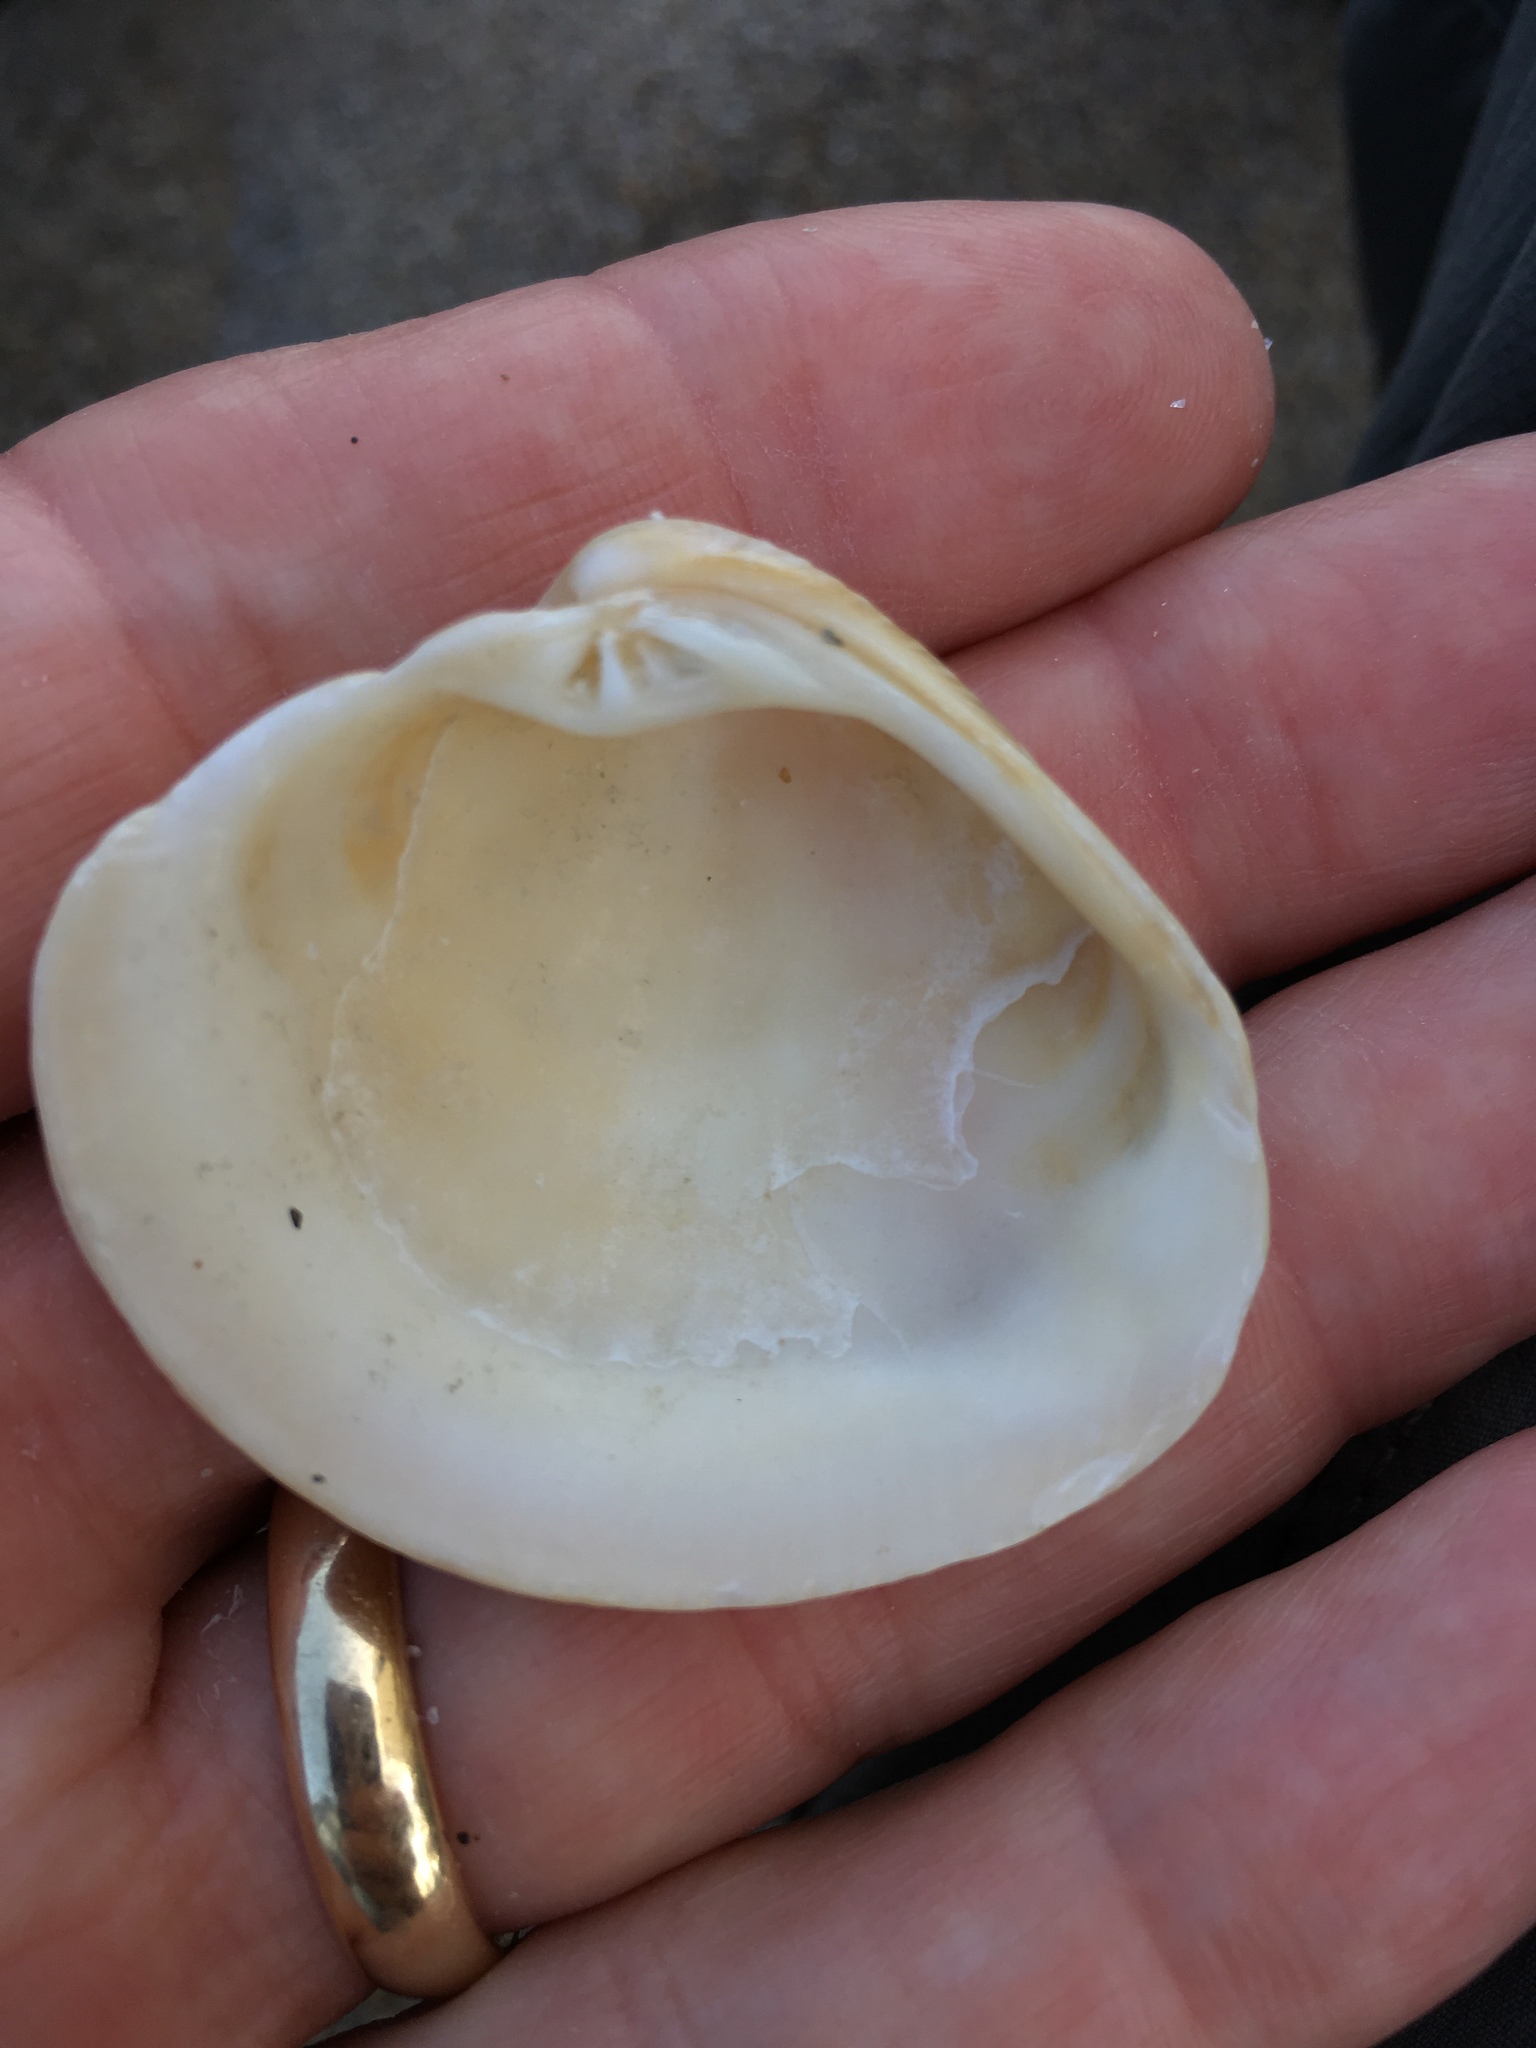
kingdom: Animalia
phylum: Mollusca
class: Bivalvia
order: Venerida
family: Veneridae
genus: Chionopsis
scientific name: Chionopsis intapurpurea
